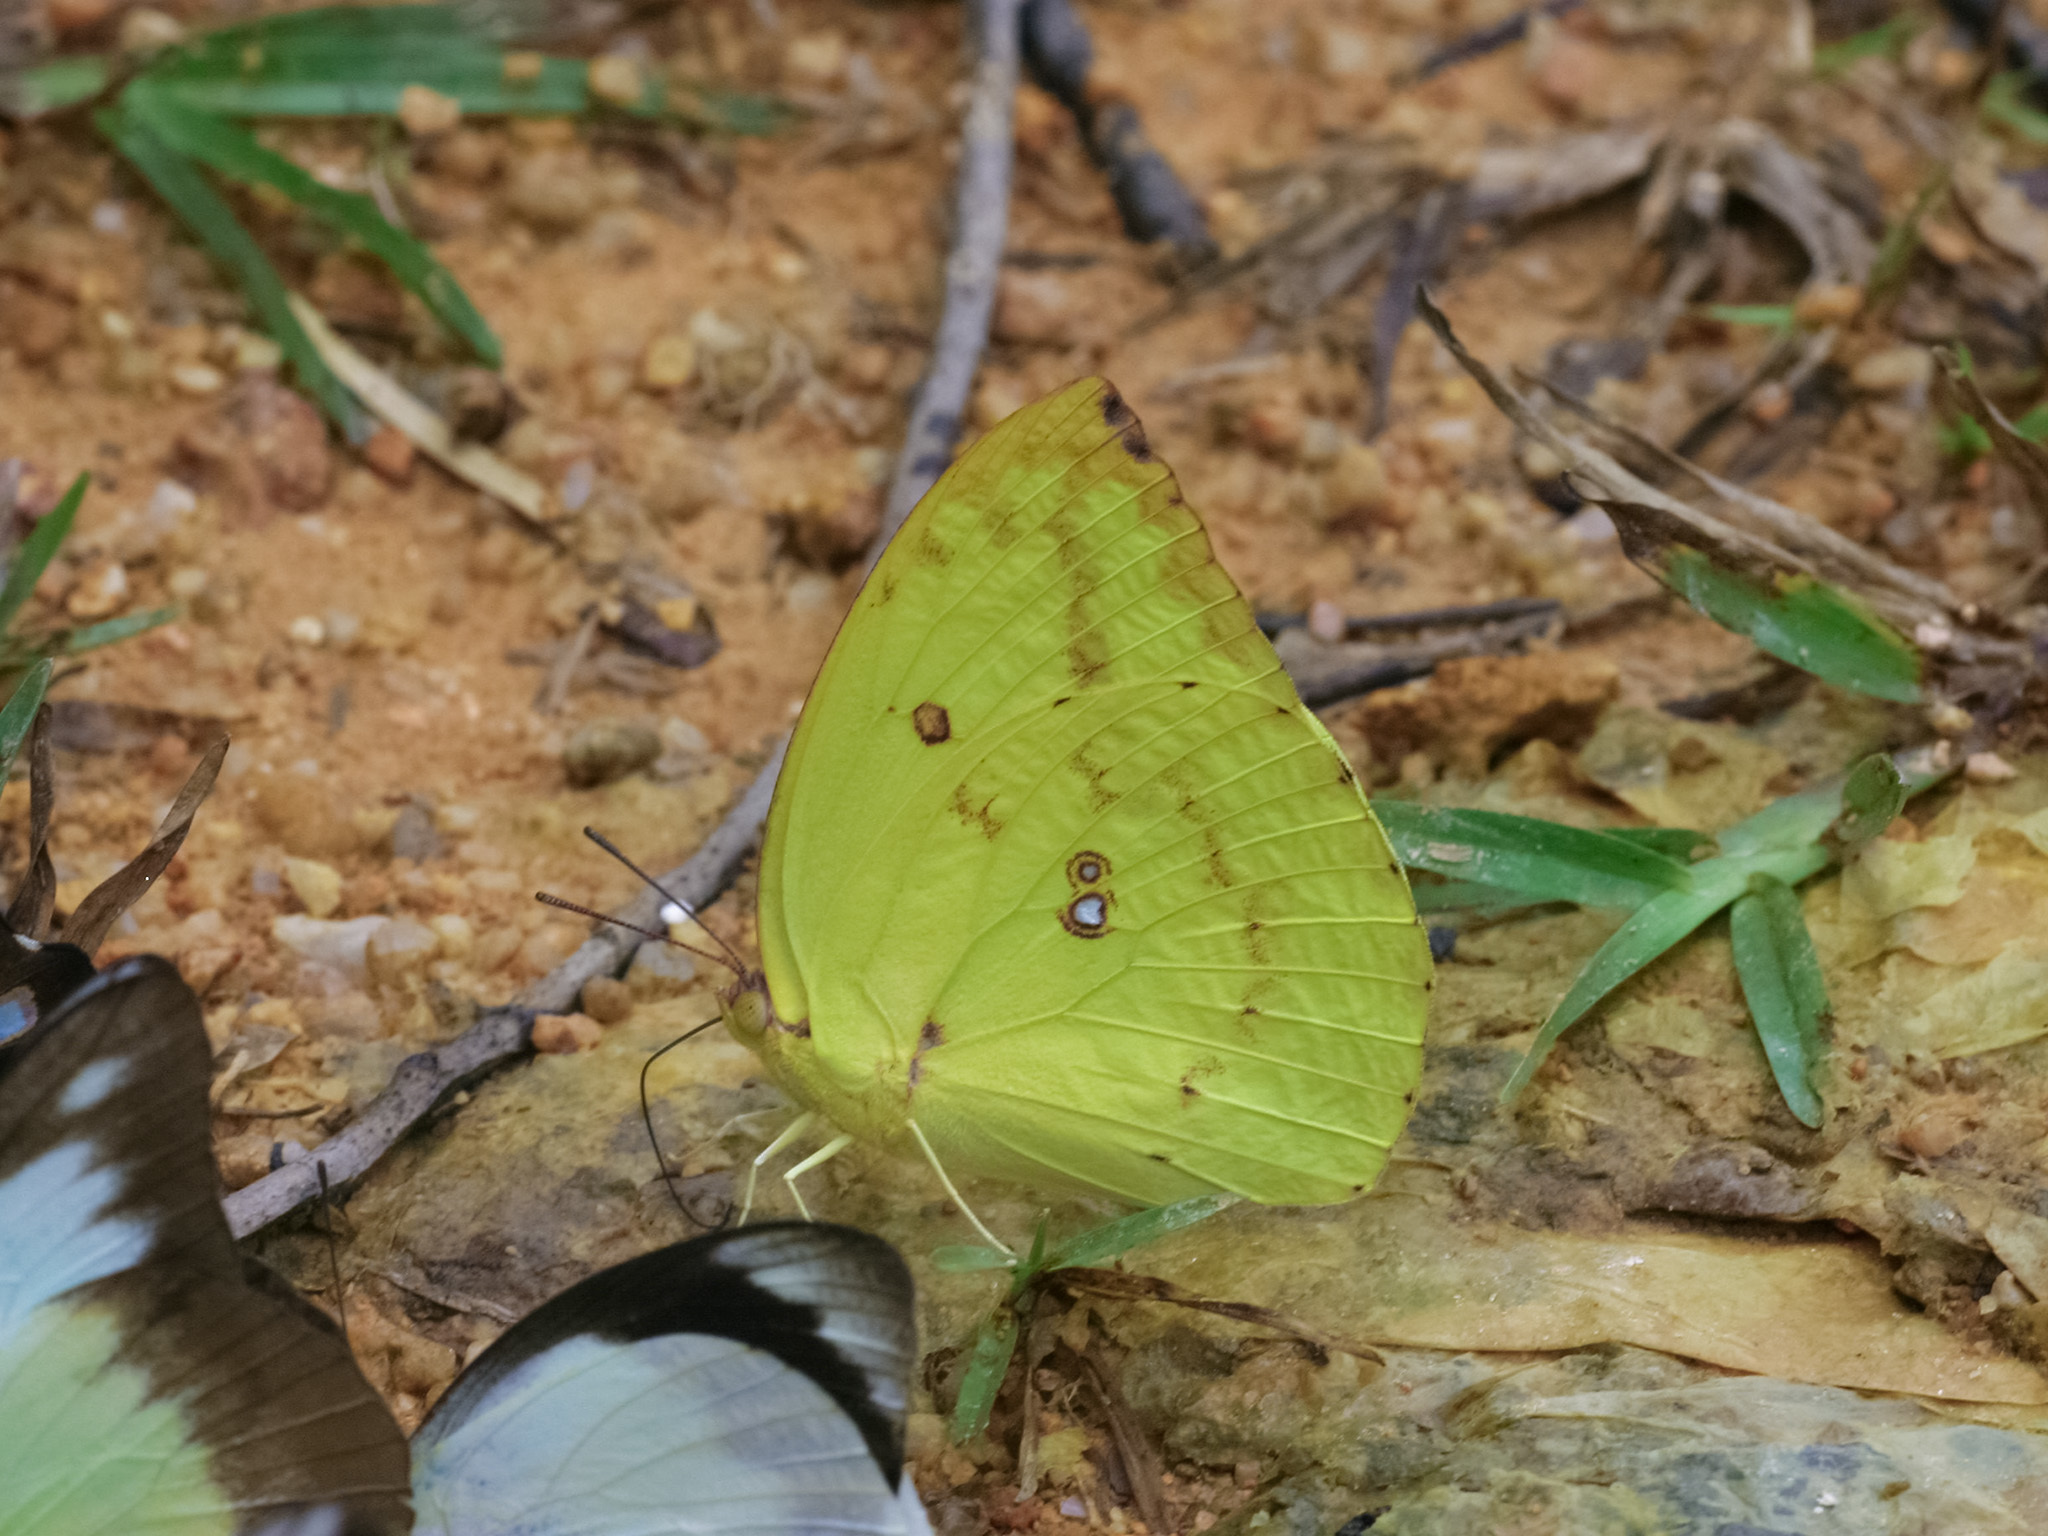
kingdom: Animalia
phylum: Arthropoda
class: Insecta
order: Lepidoptera
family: Pieridae
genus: Catopsilia
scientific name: Catopsilia pomona
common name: Common emigrant
